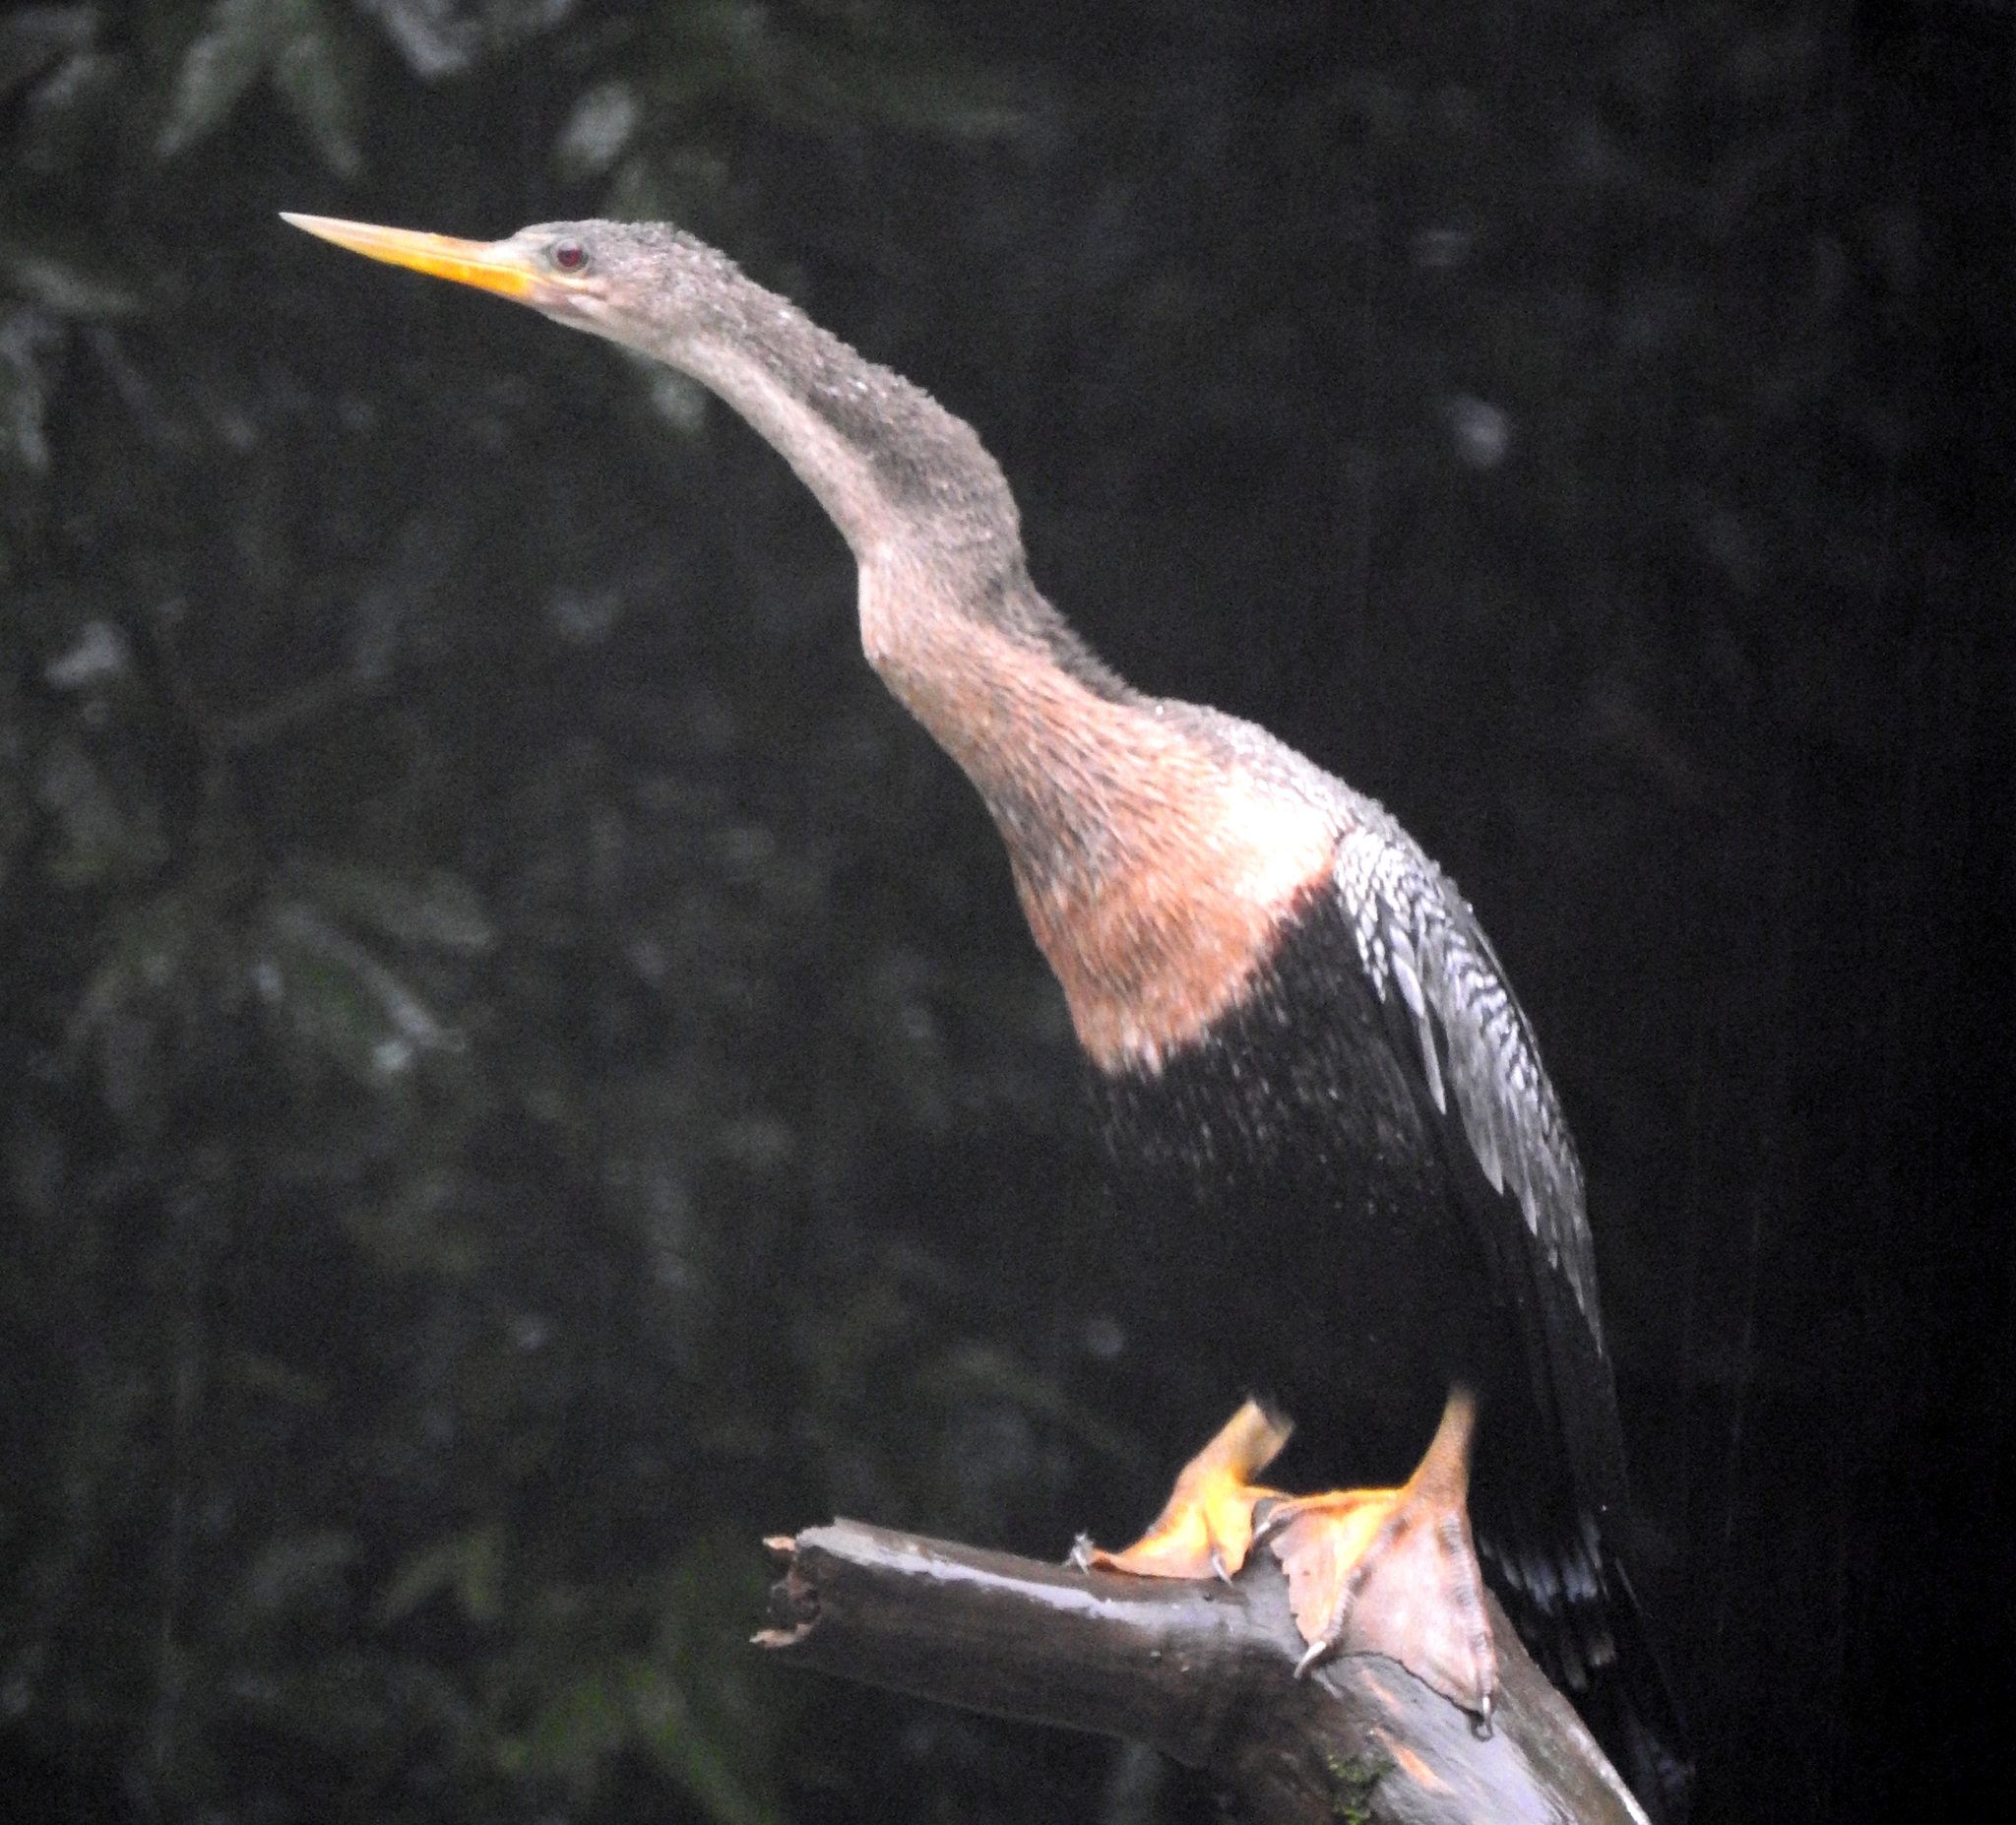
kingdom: Animalia
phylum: Chordata
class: Aves
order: Suliformes
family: Anhingidae
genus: Anhinga
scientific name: Anhinga anhinga
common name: Anhinga
